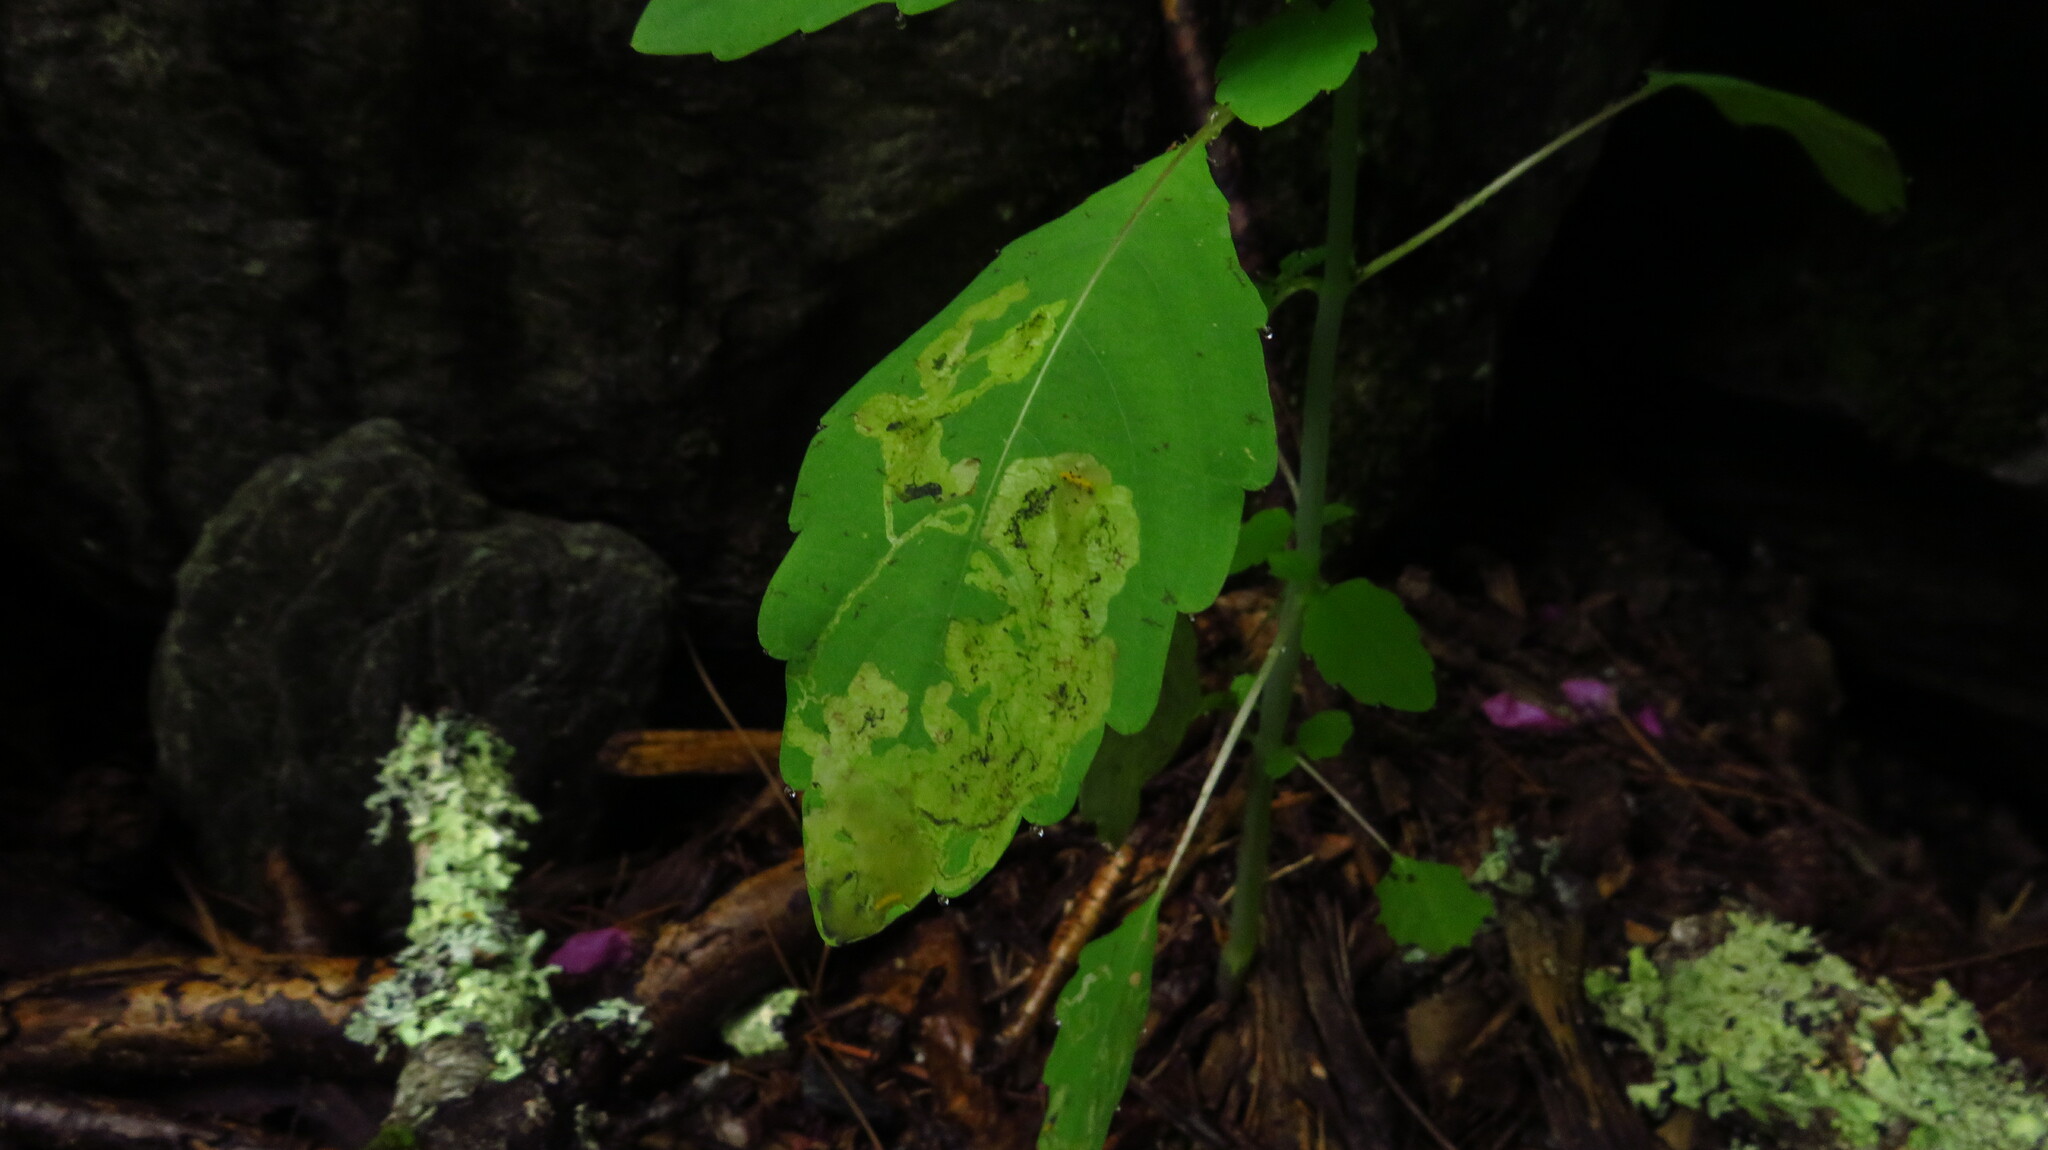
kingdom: Plantae
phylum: Tracheophyta
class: Magnoliopsida
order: Ericales
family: Balsaminaceae
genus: Impatiens
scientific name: Impatiens
